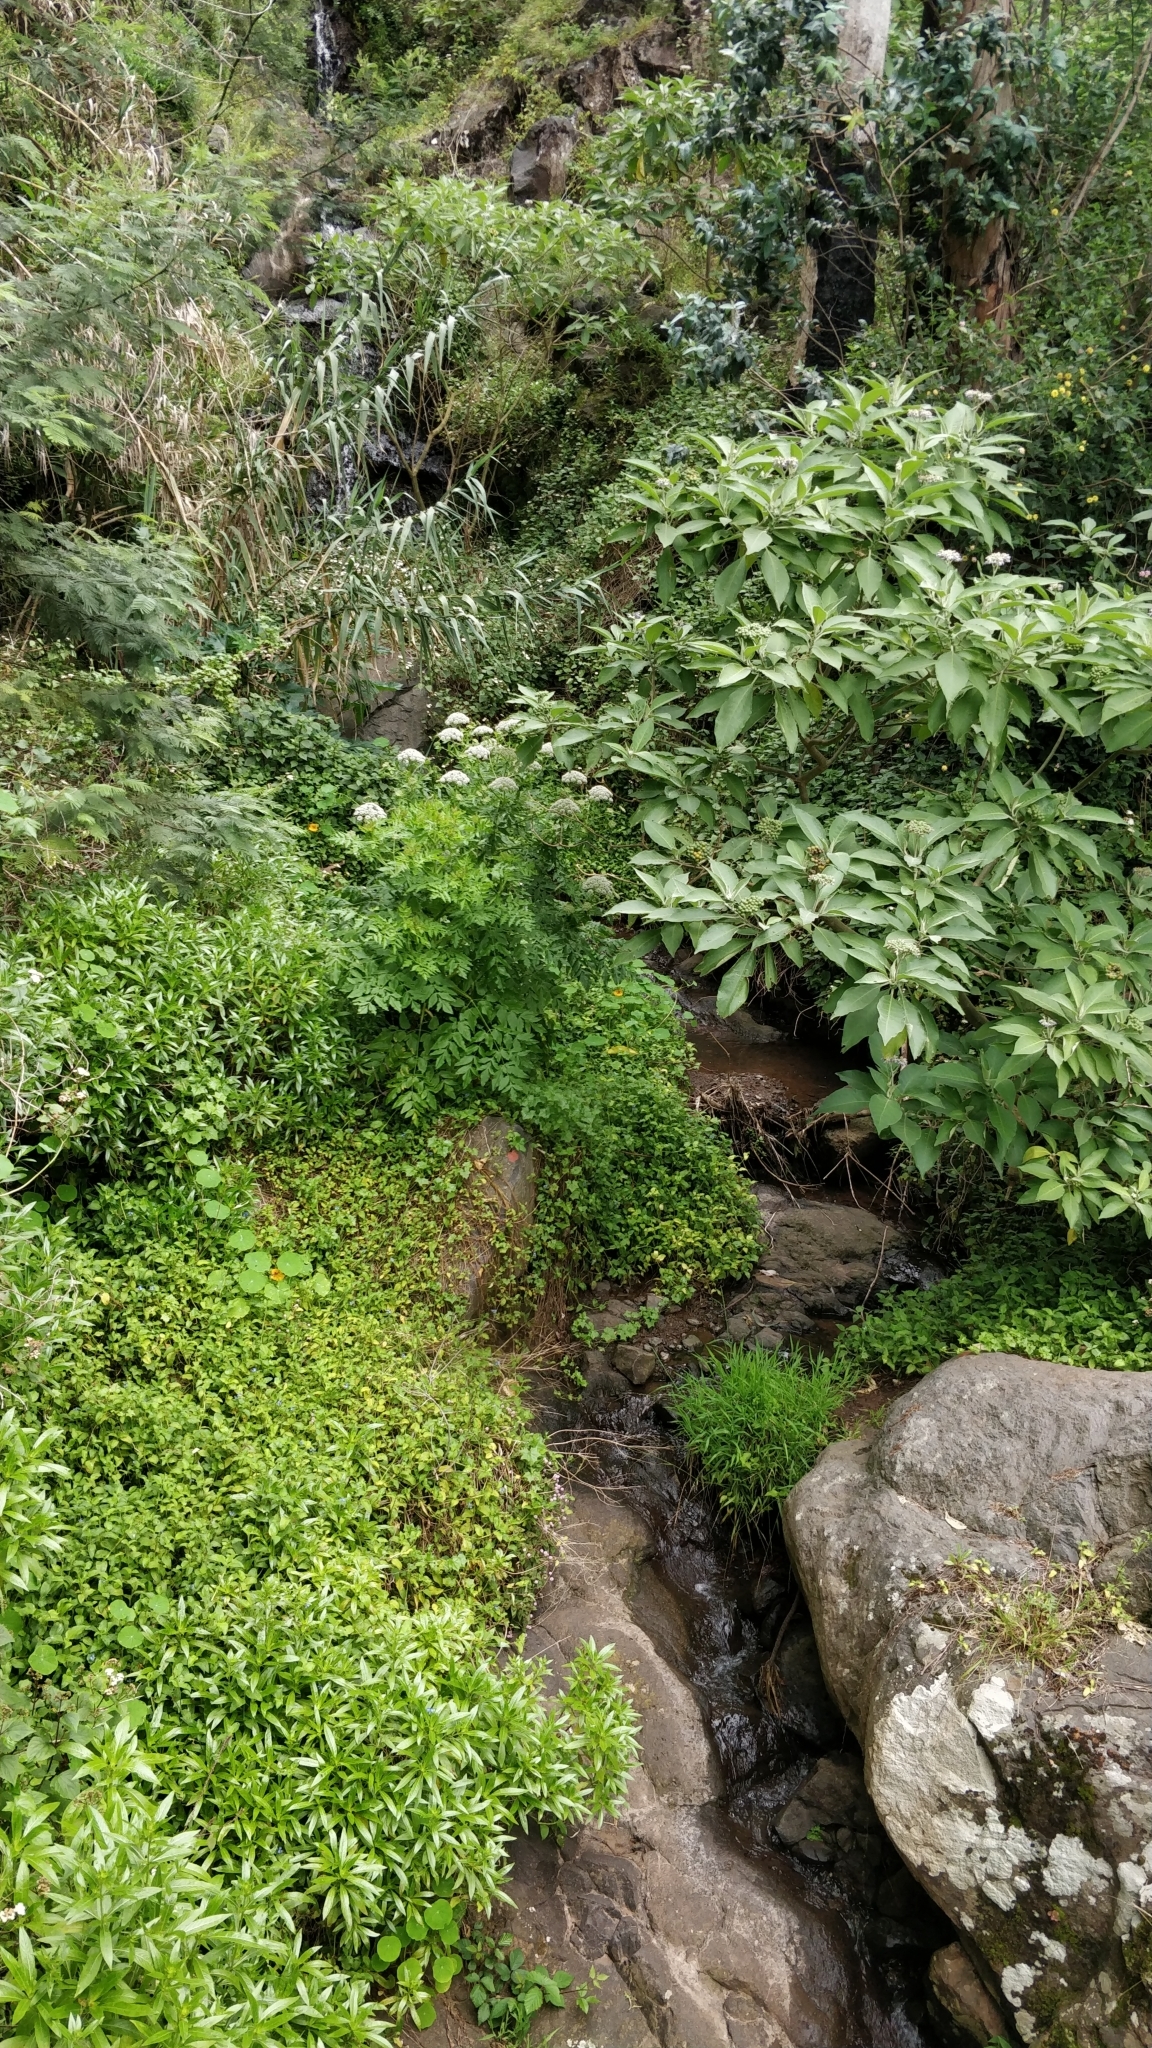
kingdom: Plantae
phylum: Tracheophyta
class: Magnoliopsida
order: Apiales
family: Apiaceae
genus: Daucus
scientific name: Daucus decipiens
